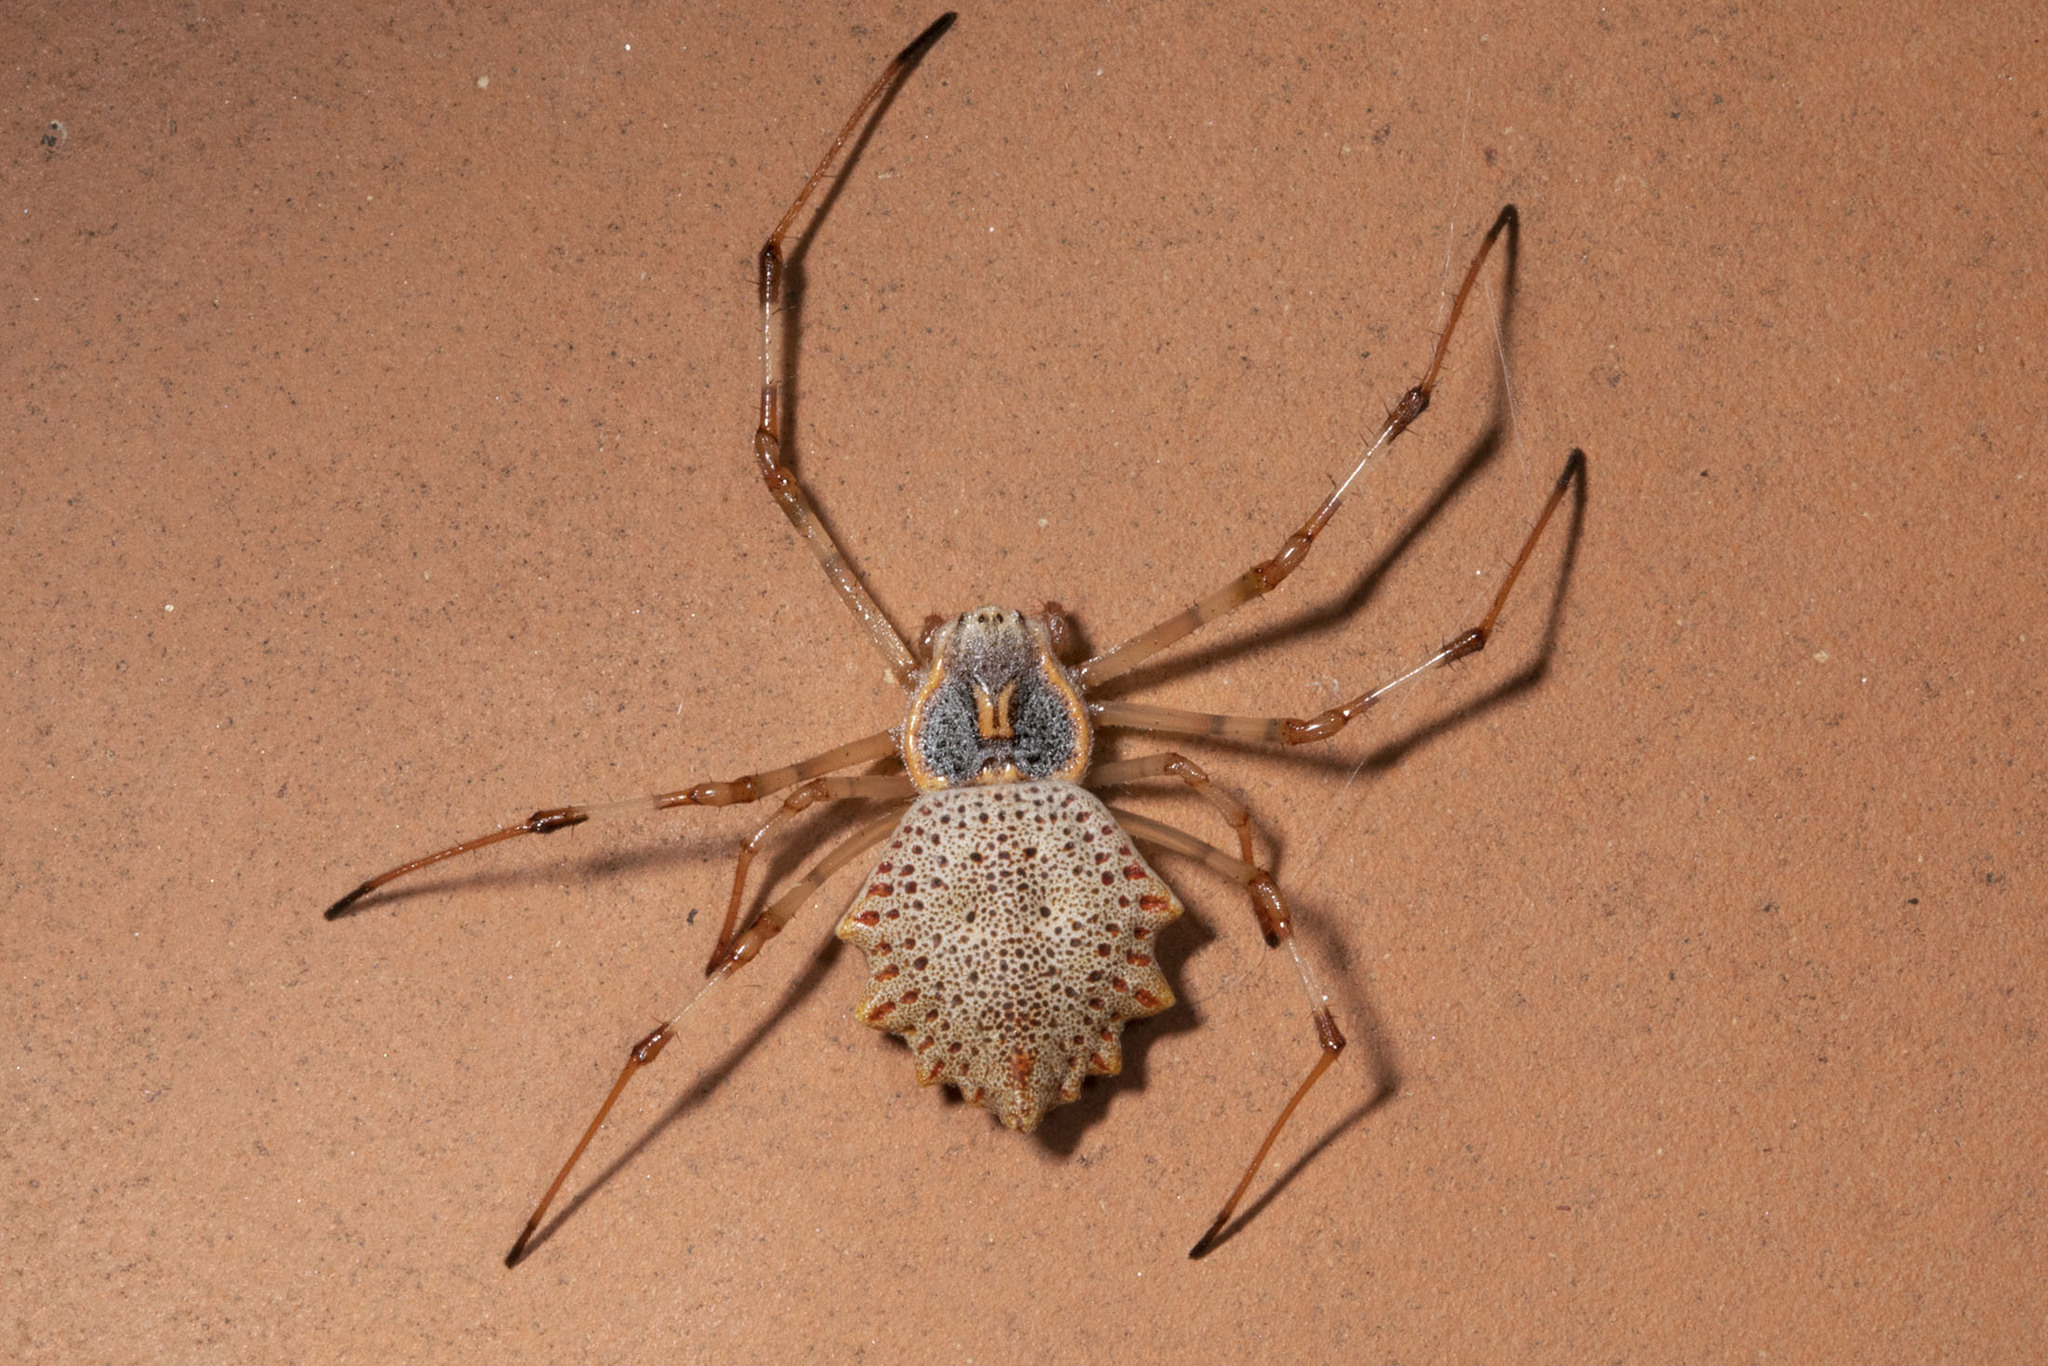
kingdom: Animalia
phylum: Arthropoda
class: Arachnida
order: Araneae
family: Araneidae
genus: Herennia
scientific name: Herennia multipuncta
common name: Spotted coin spider
